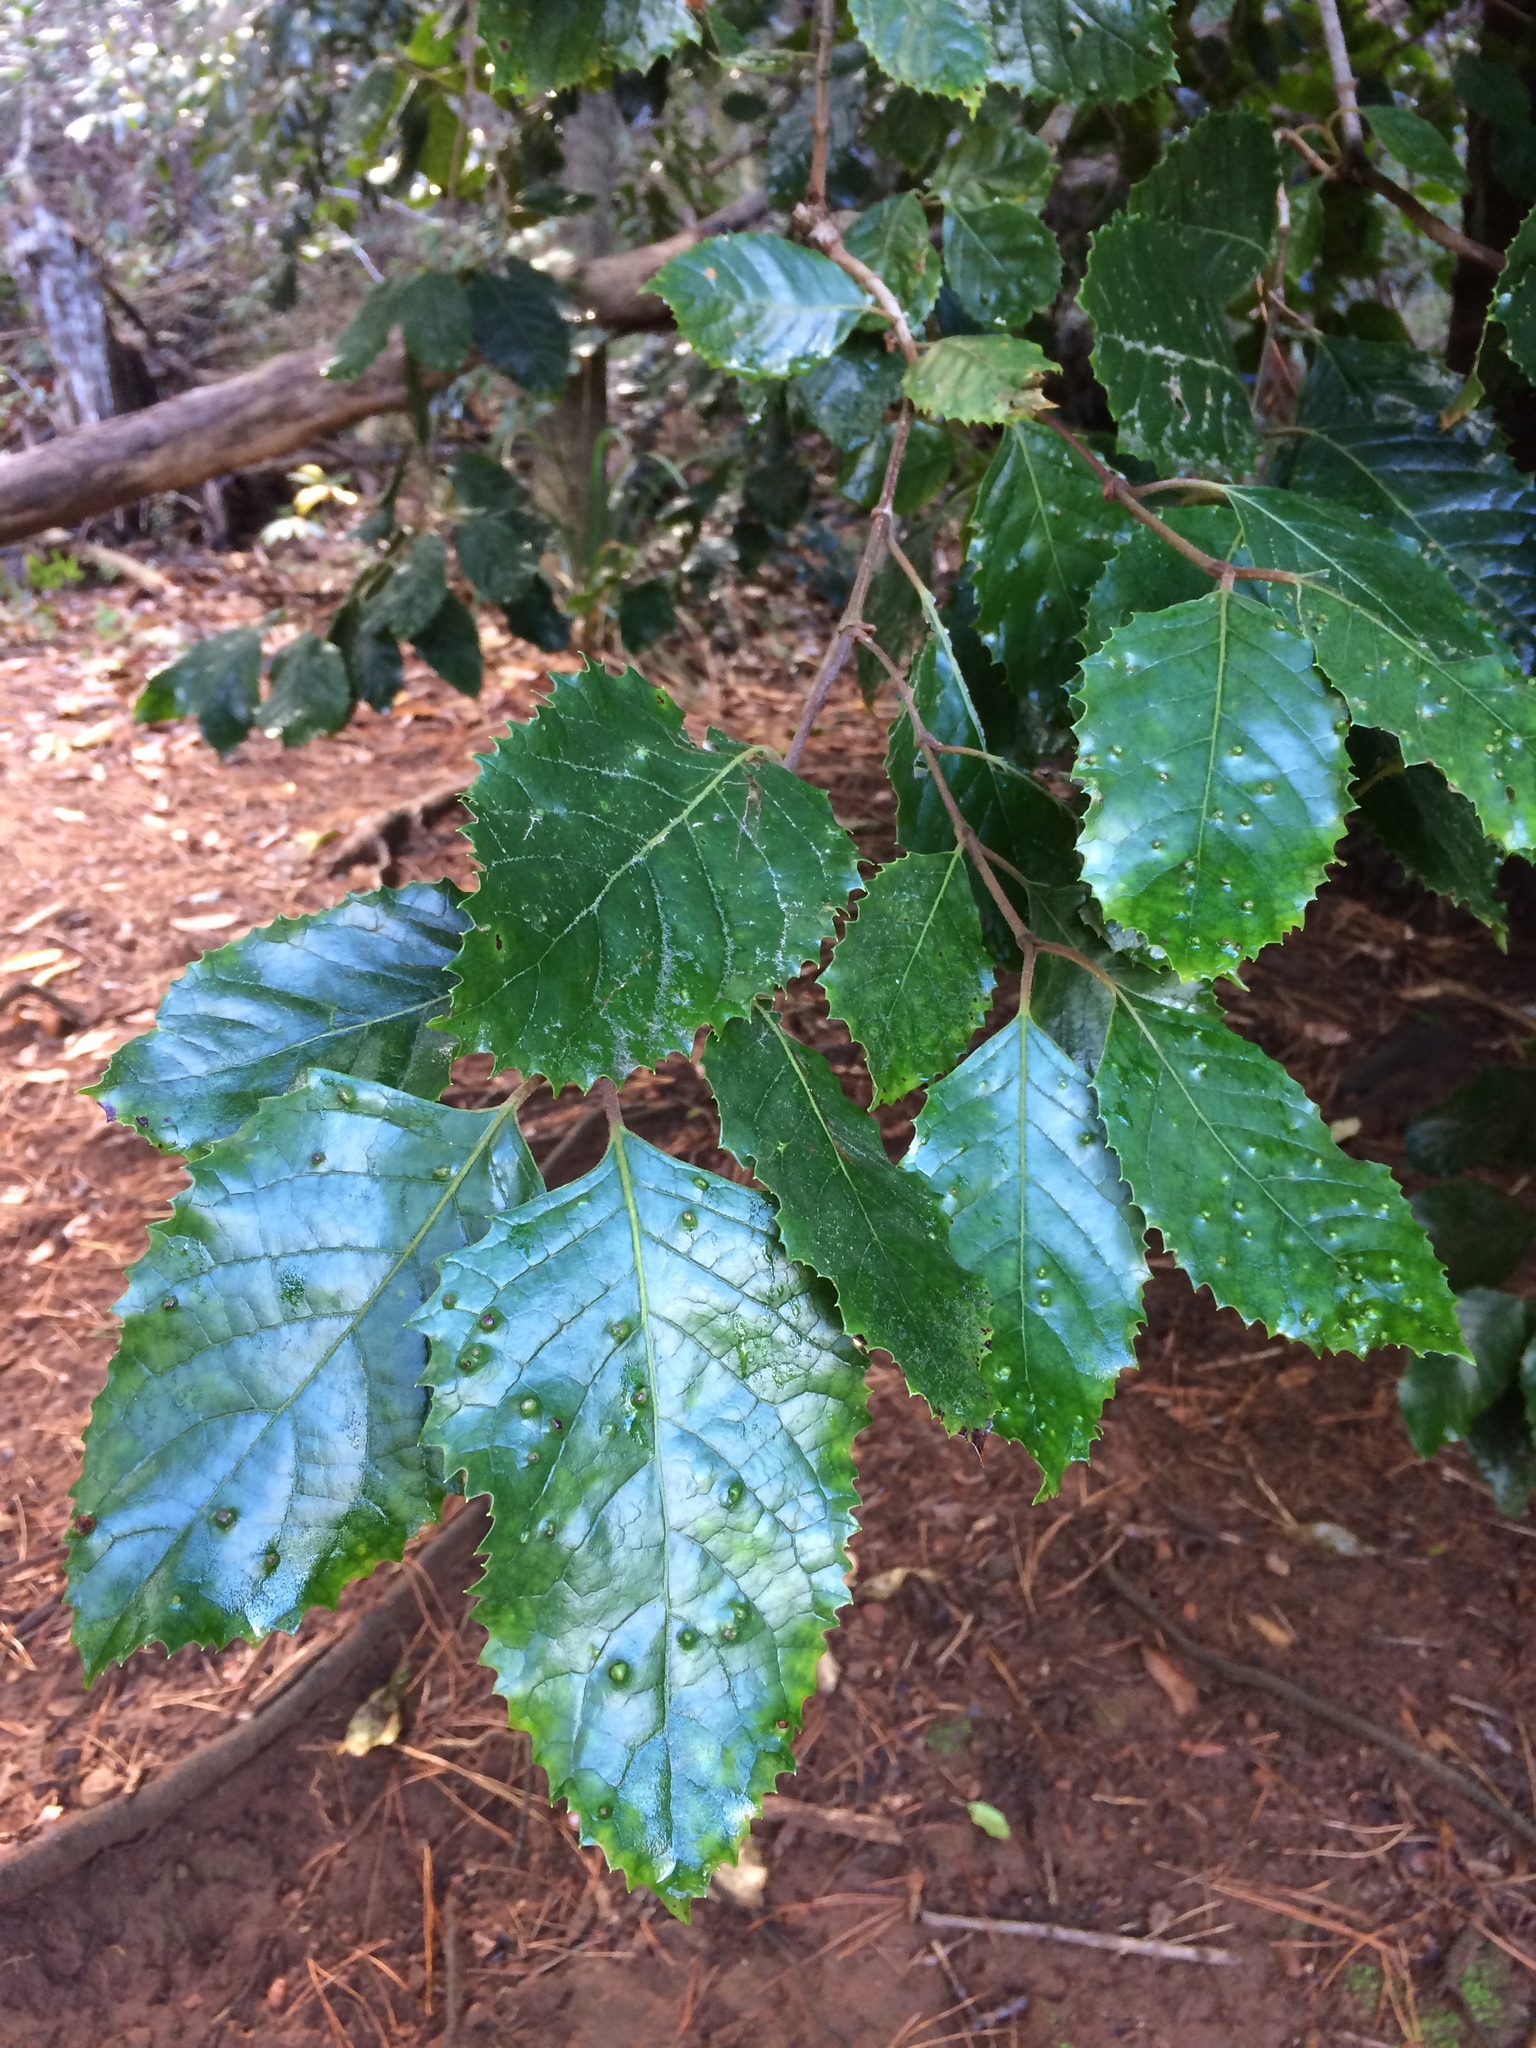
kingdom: Animalia
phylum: Arthropoda
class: Arachnida
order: Trombidiformes
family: Phytoptidae
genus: Phytoptus
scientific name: Phytoptus
